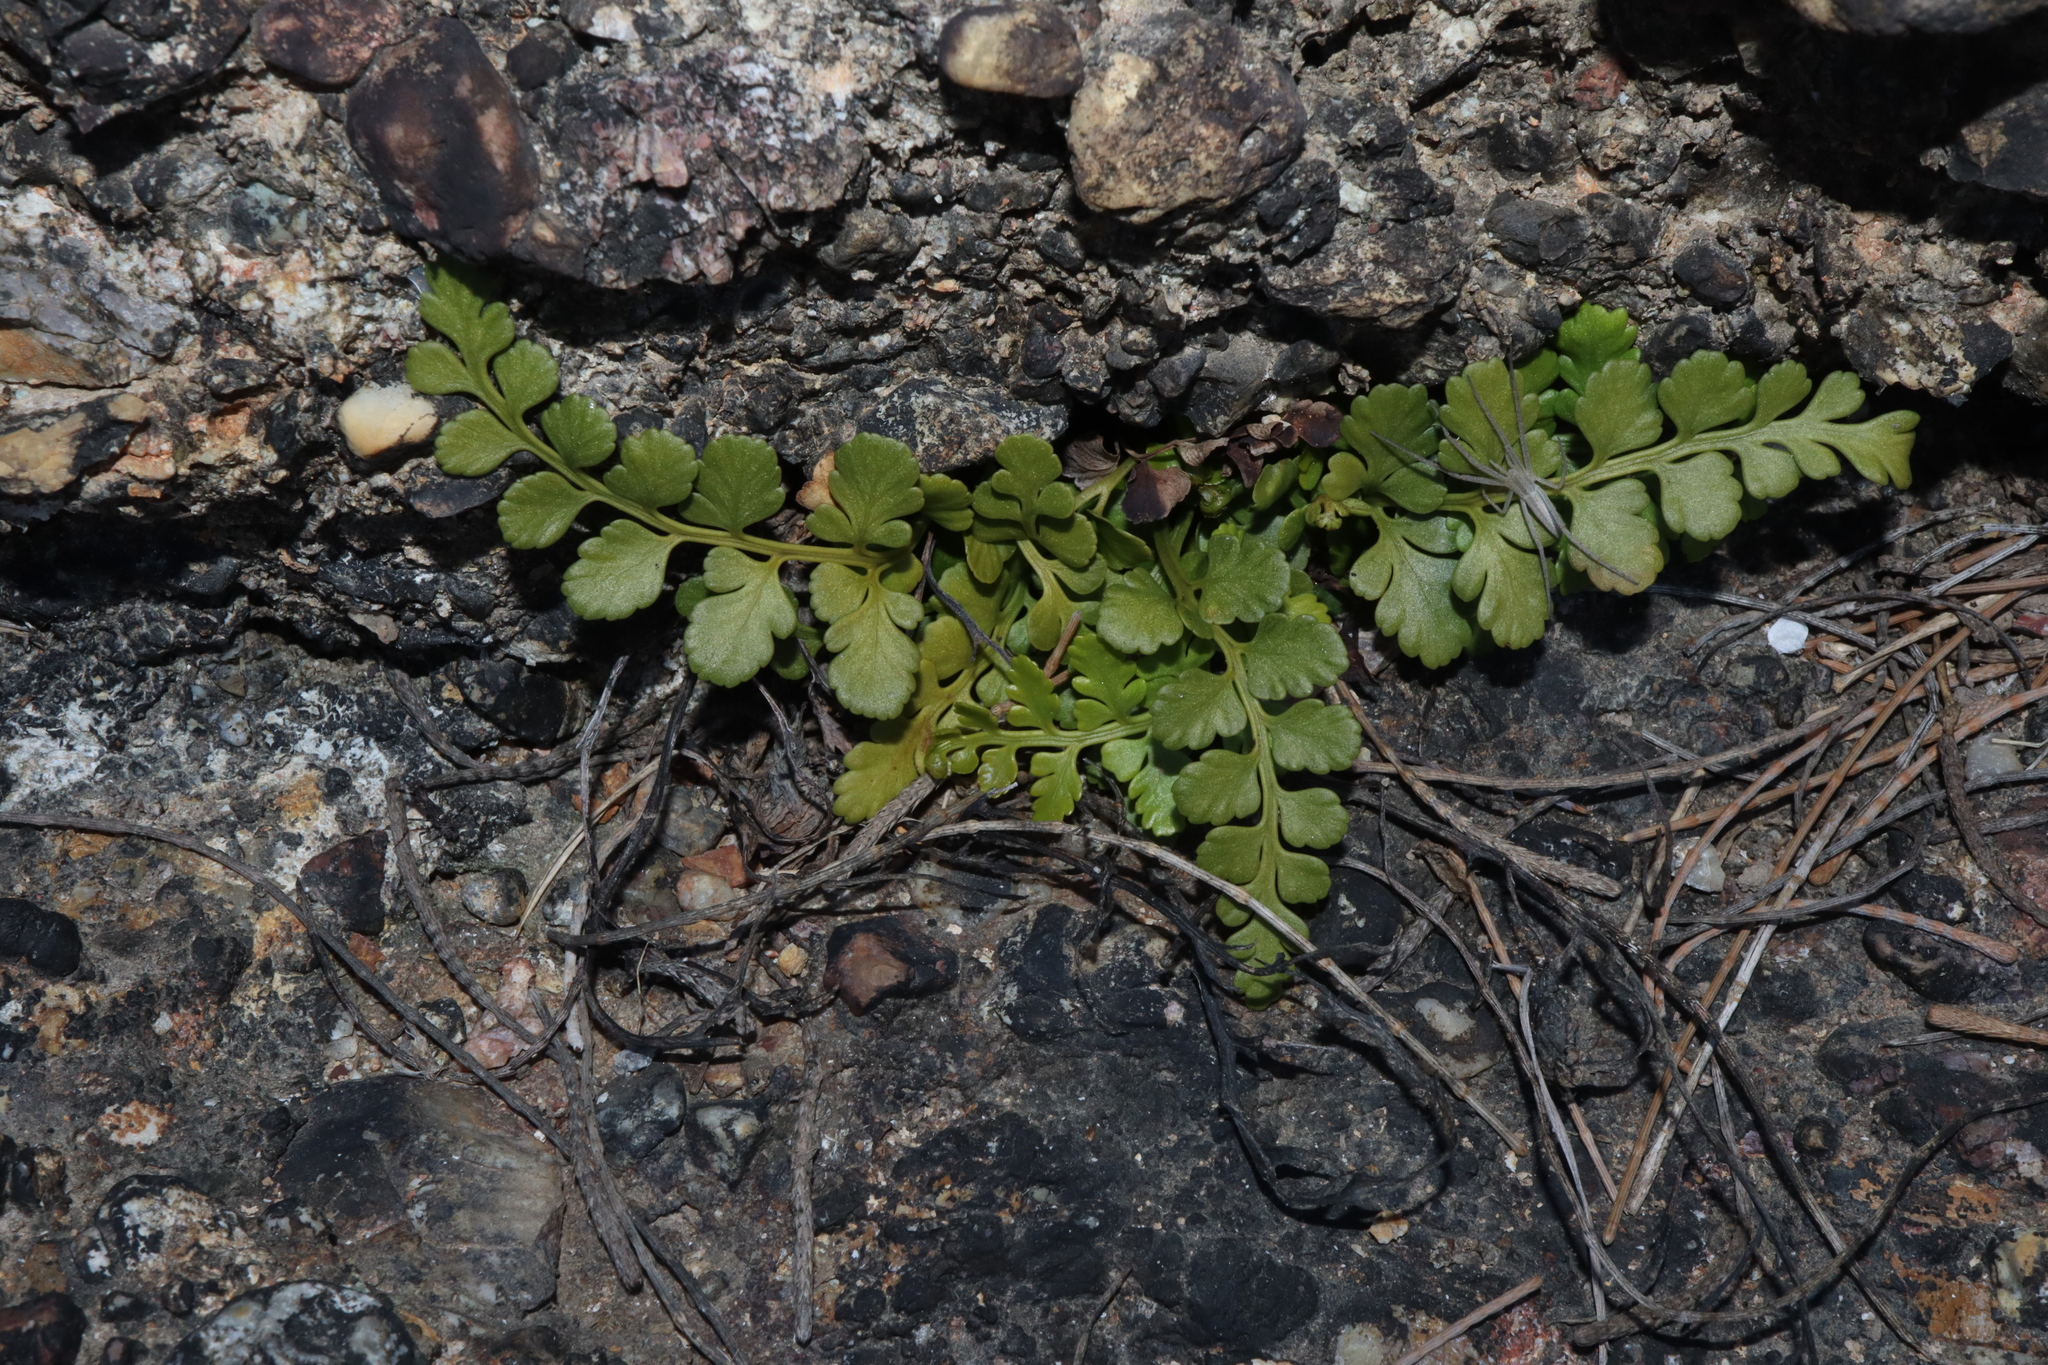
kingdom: Plantae
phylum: Tracheophyta
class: Polypodiopsida
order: Polypodiales
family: Aspleniaceae
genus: Asplenium
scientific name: Asplenium difforme
